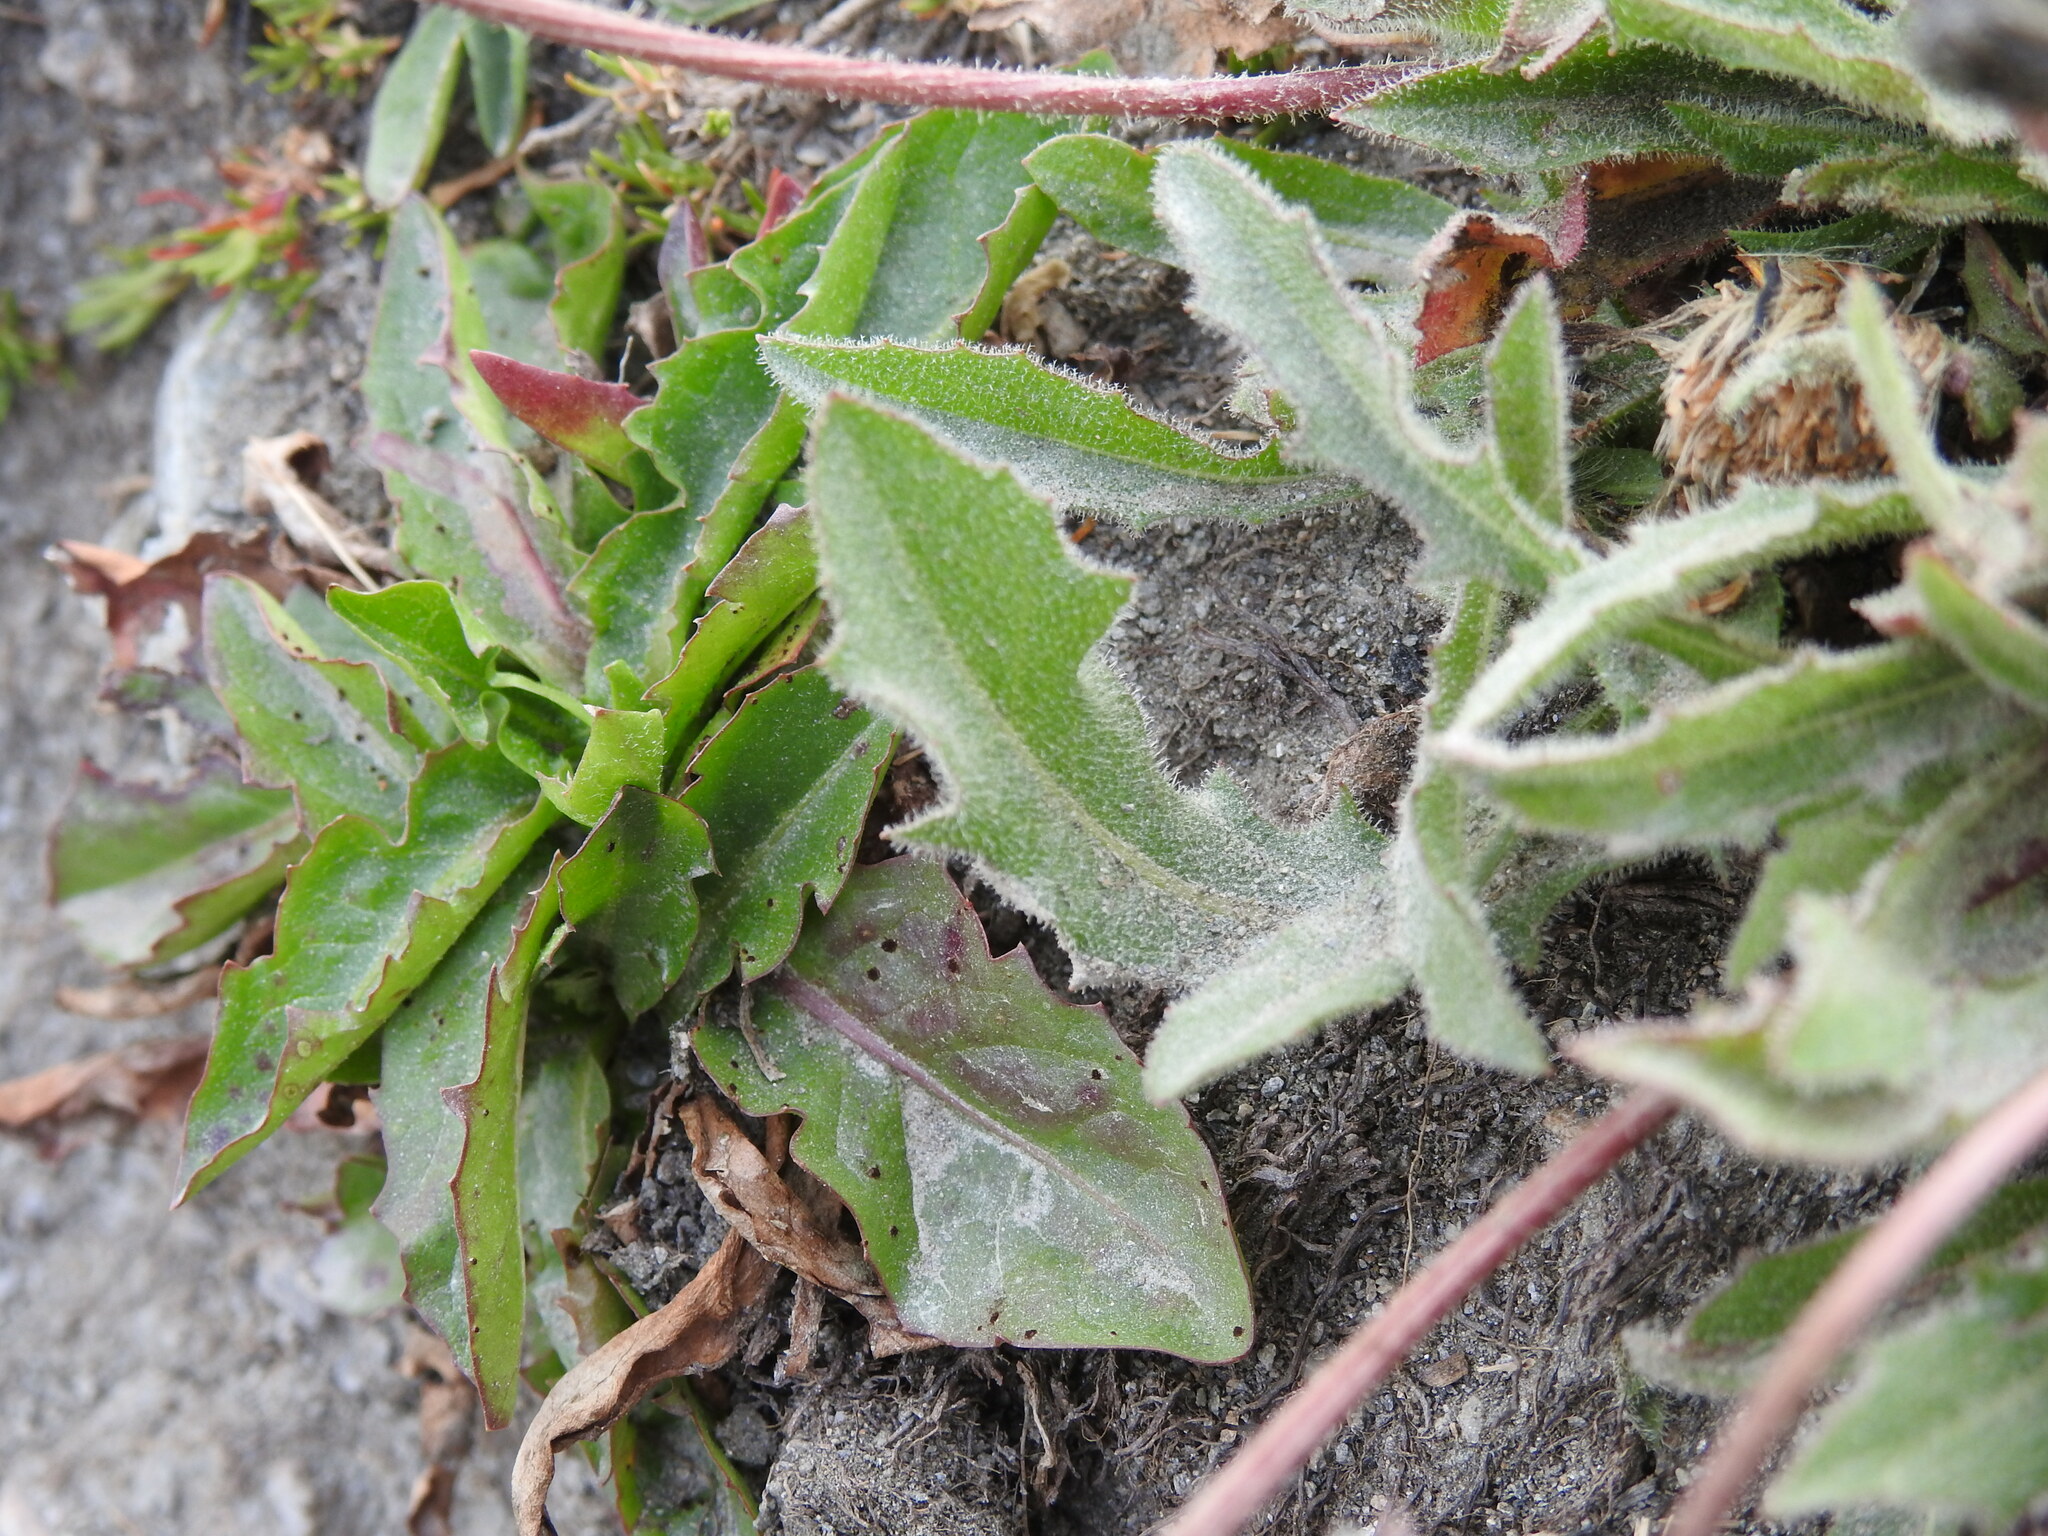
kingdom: Plantae
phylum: Tracheophyta
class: Magnoliopsida
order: Asterales
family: Asteraceae
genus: Leontodon
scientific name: Leontodon hispidus
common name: Rough hawkbit
